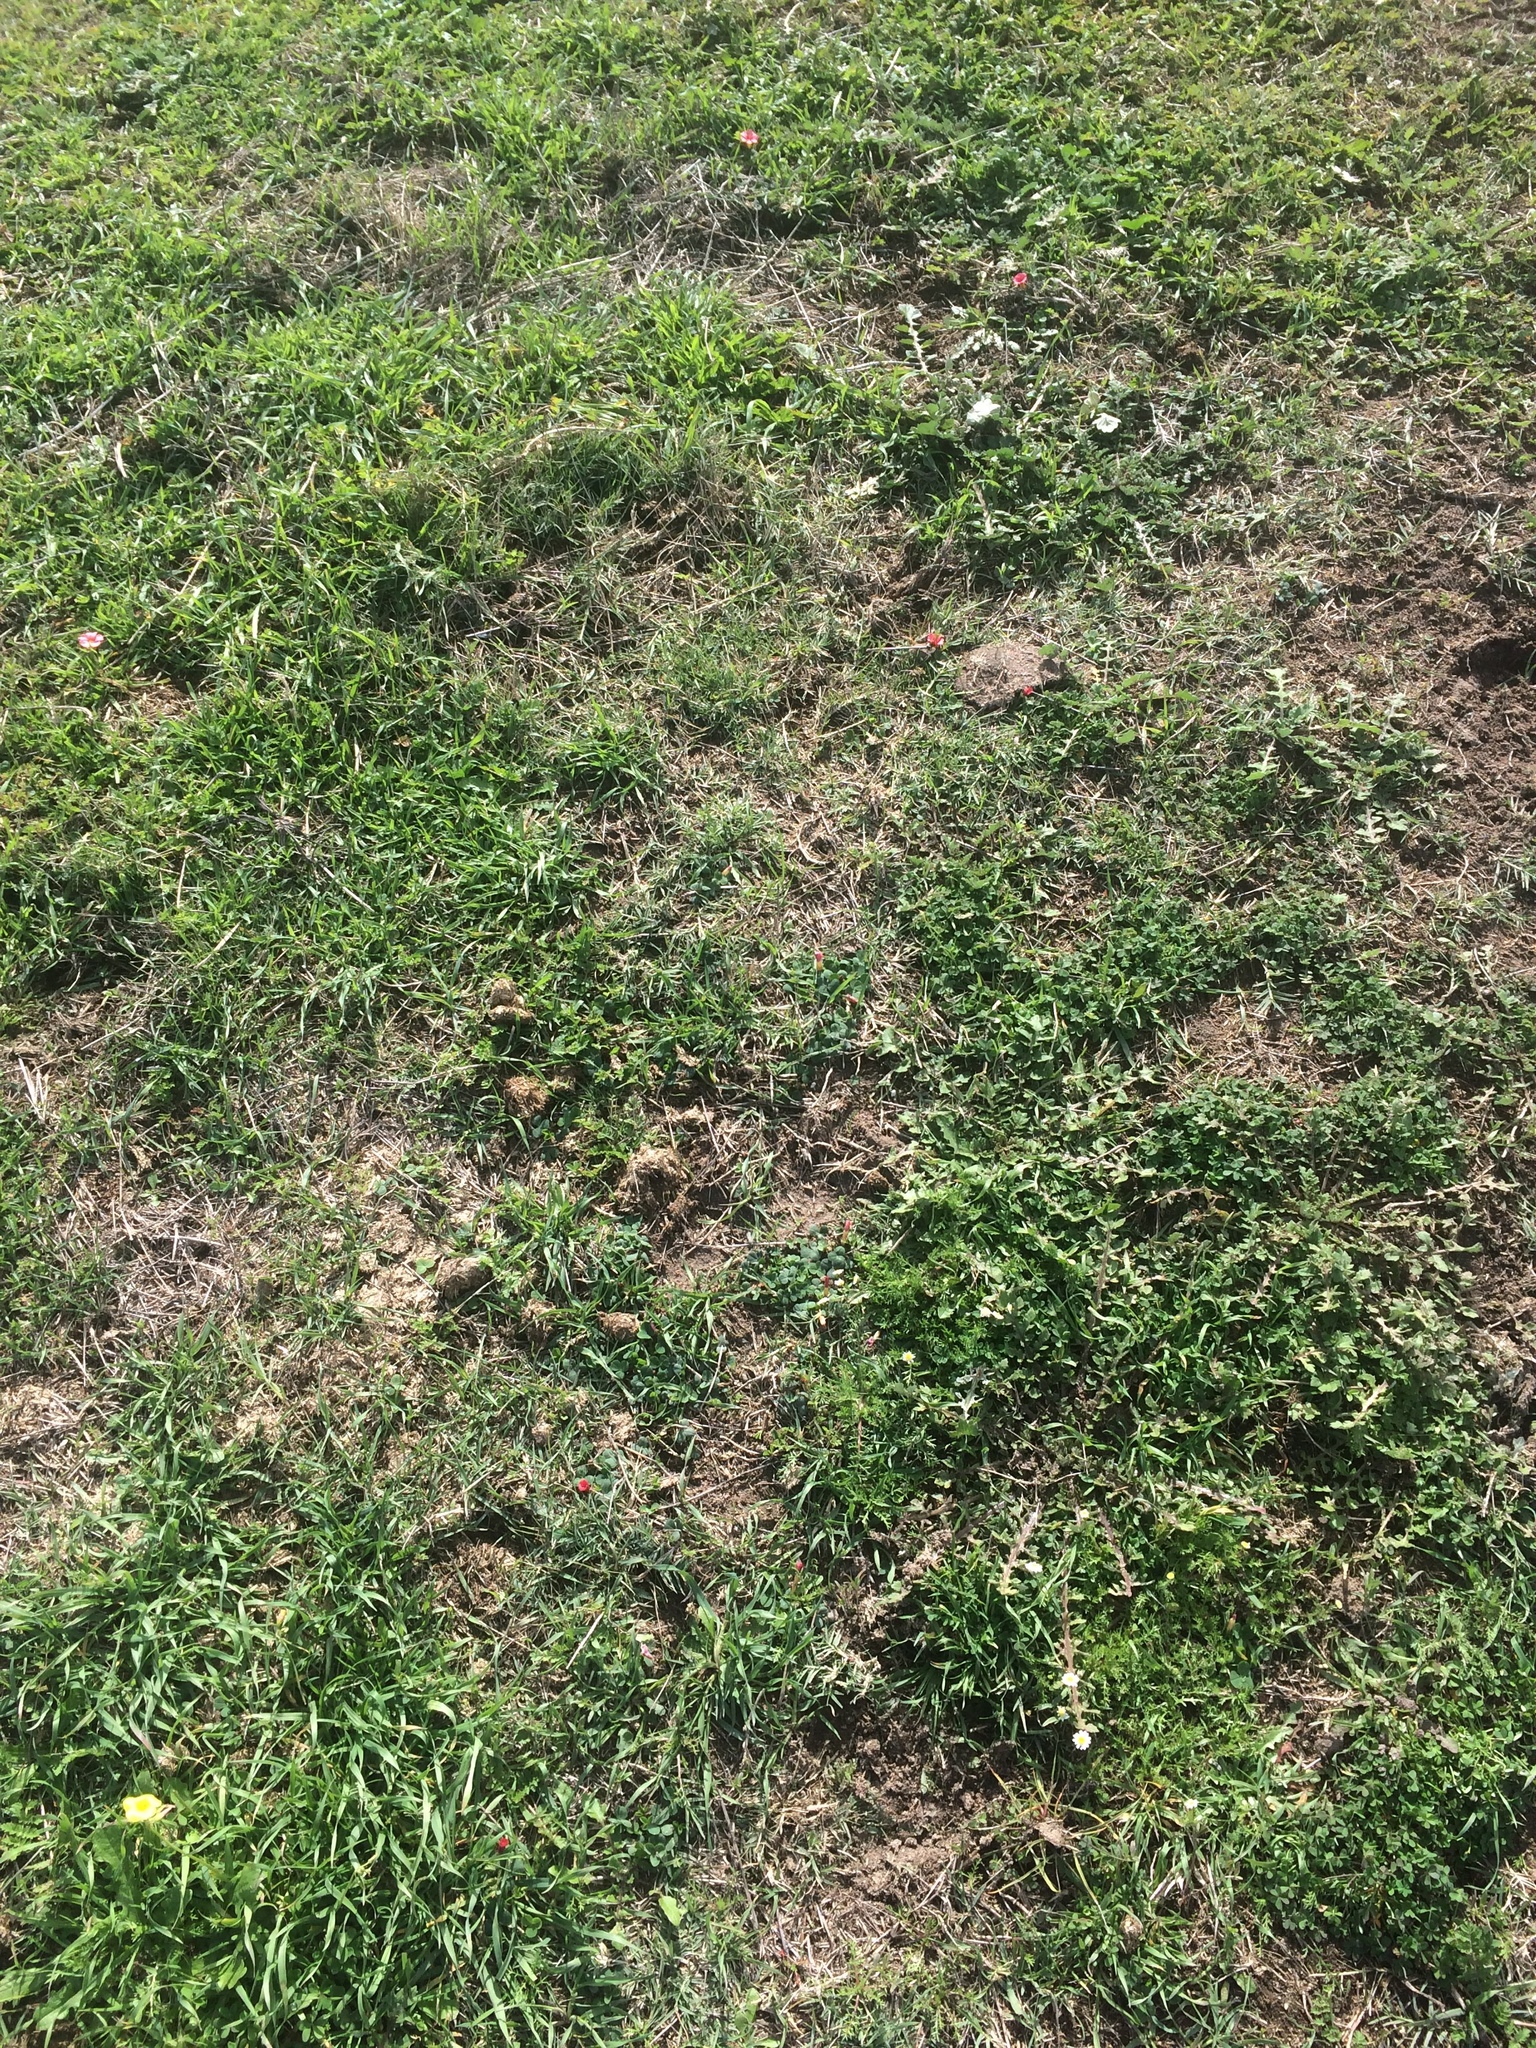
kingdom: Plantae
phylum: Tracheophyta
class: Magnoliopsida
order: Oxalidales
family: Oxalidaceae
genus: Oxalis
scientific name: Oxalis eckloniana
